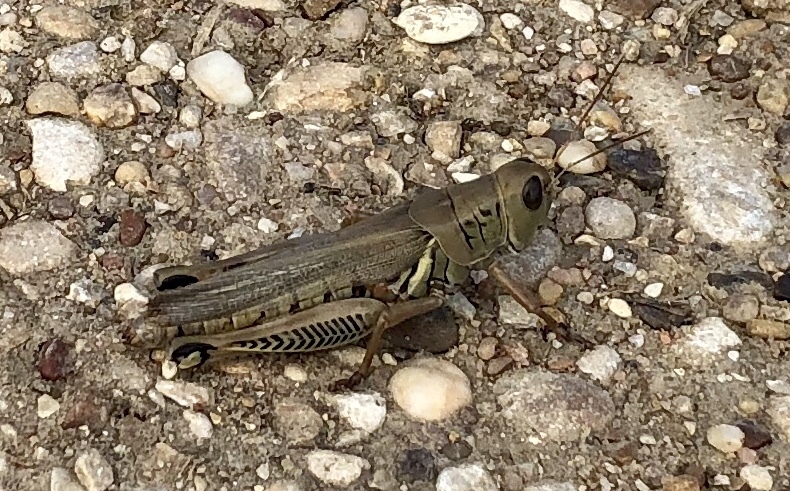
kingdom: Animalia
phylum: Arthropoda
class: Insecta
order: Orthoptera
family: Acrididae
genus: Melanoplus
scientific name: Melanoplus differentialis
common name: Differential grasshopper
